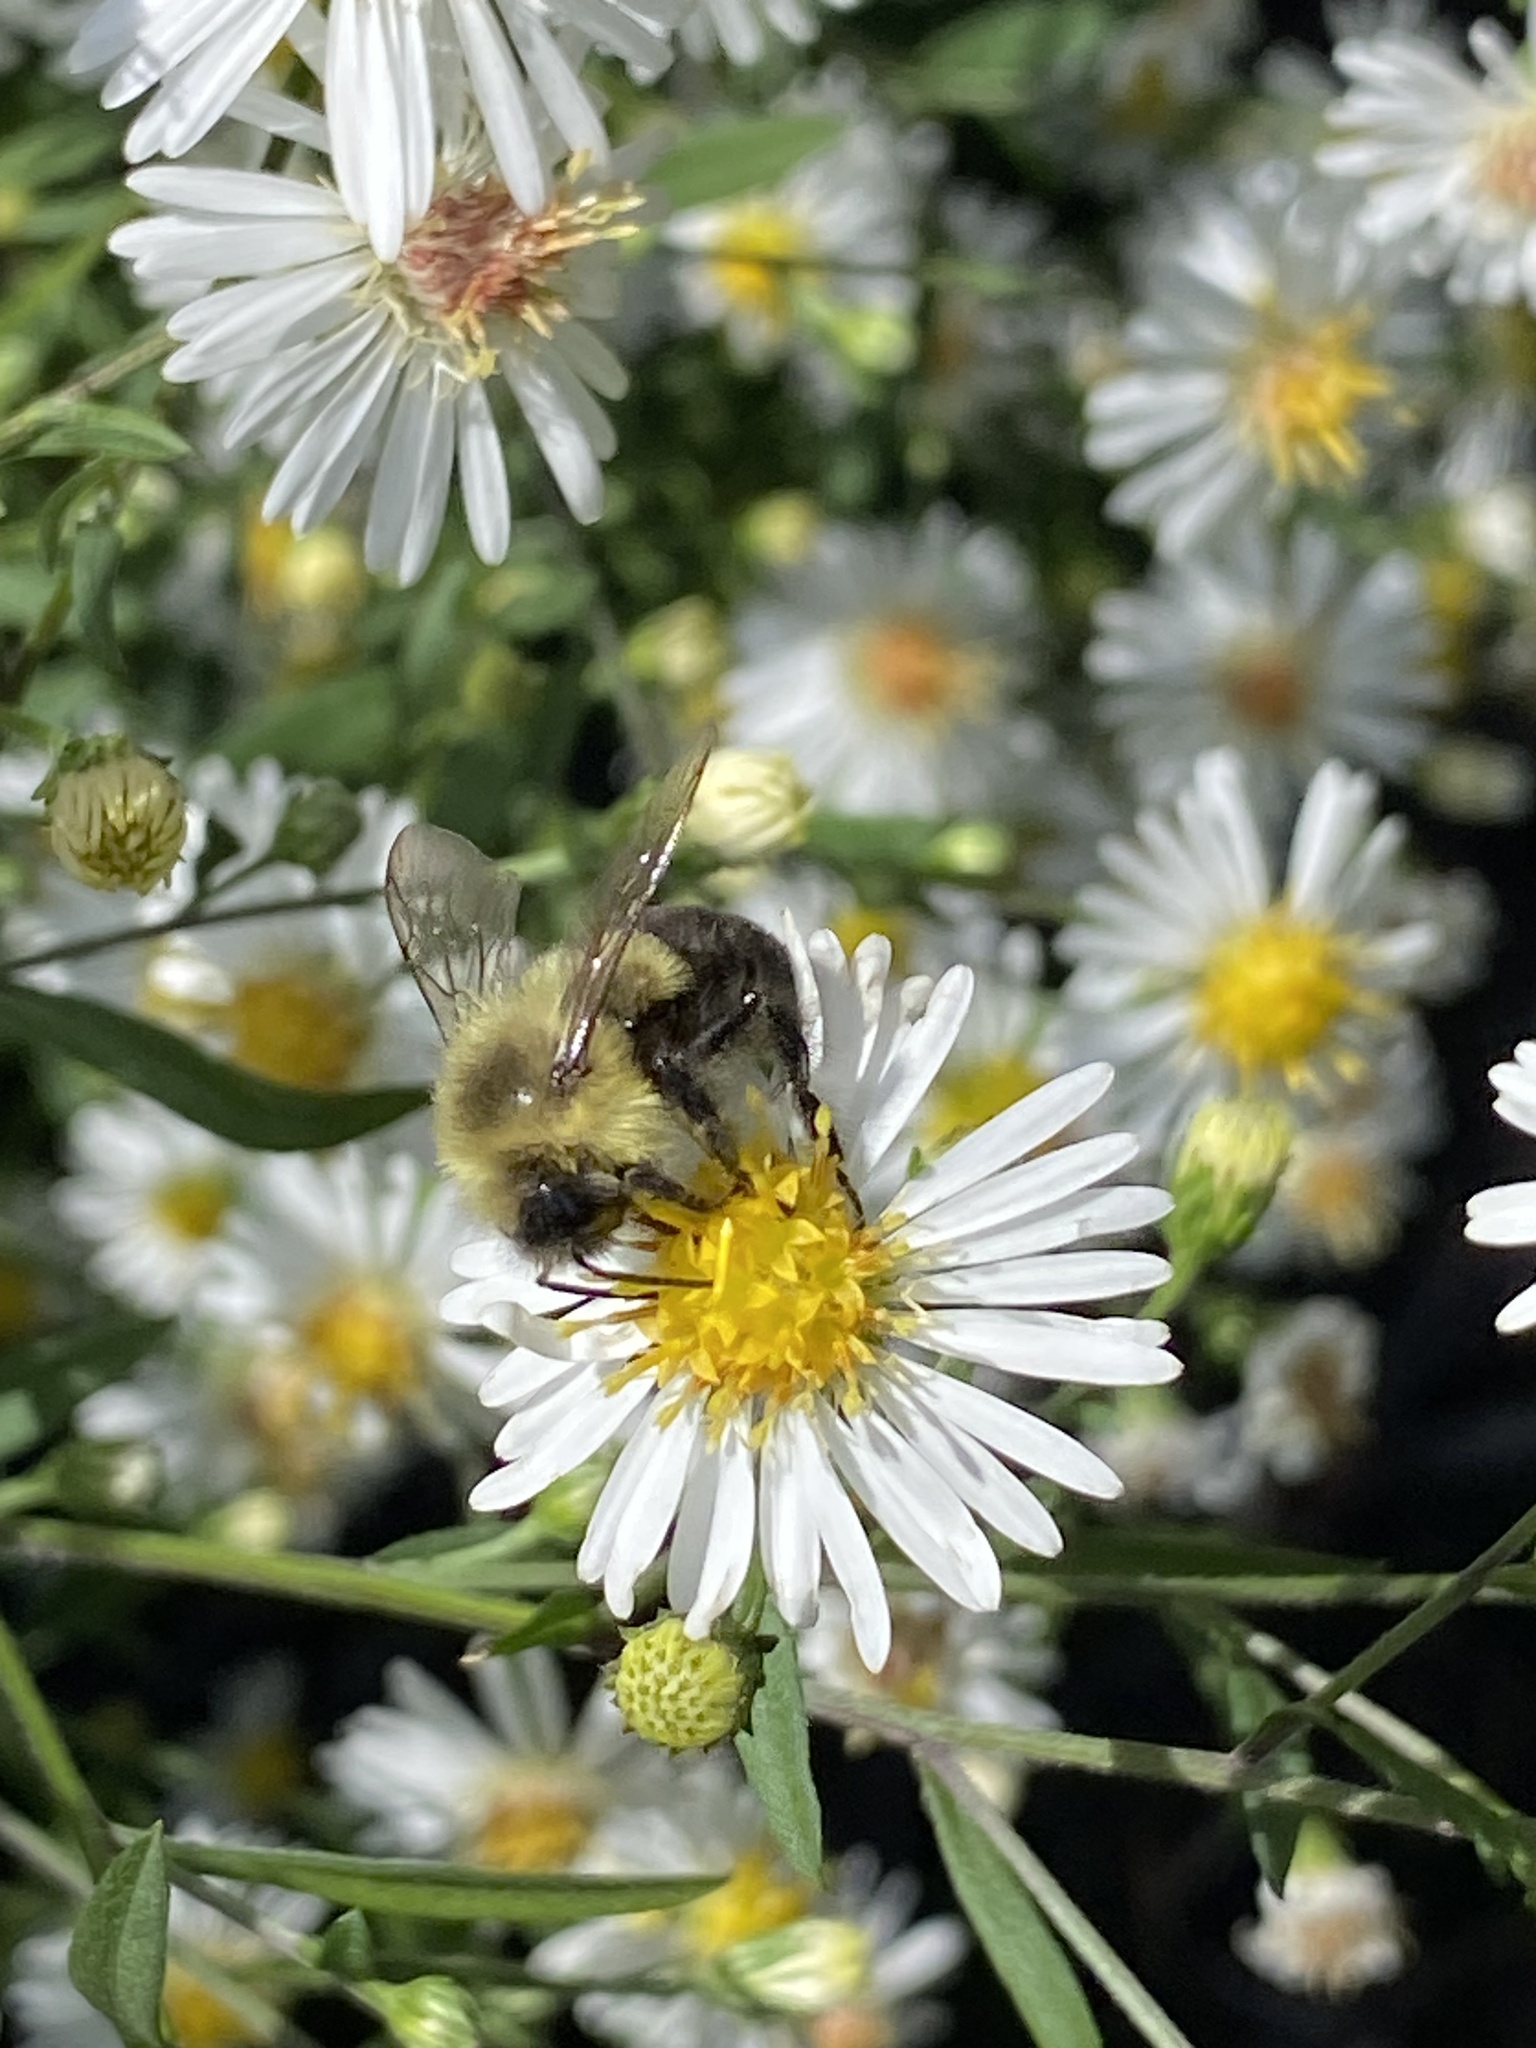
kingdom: Animalia
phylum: Arthropoda
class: Insecta
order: Hymenoptera
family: Apidae
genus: Bombus
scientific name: Bombus impatiens
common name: Common eastern bumble bee
